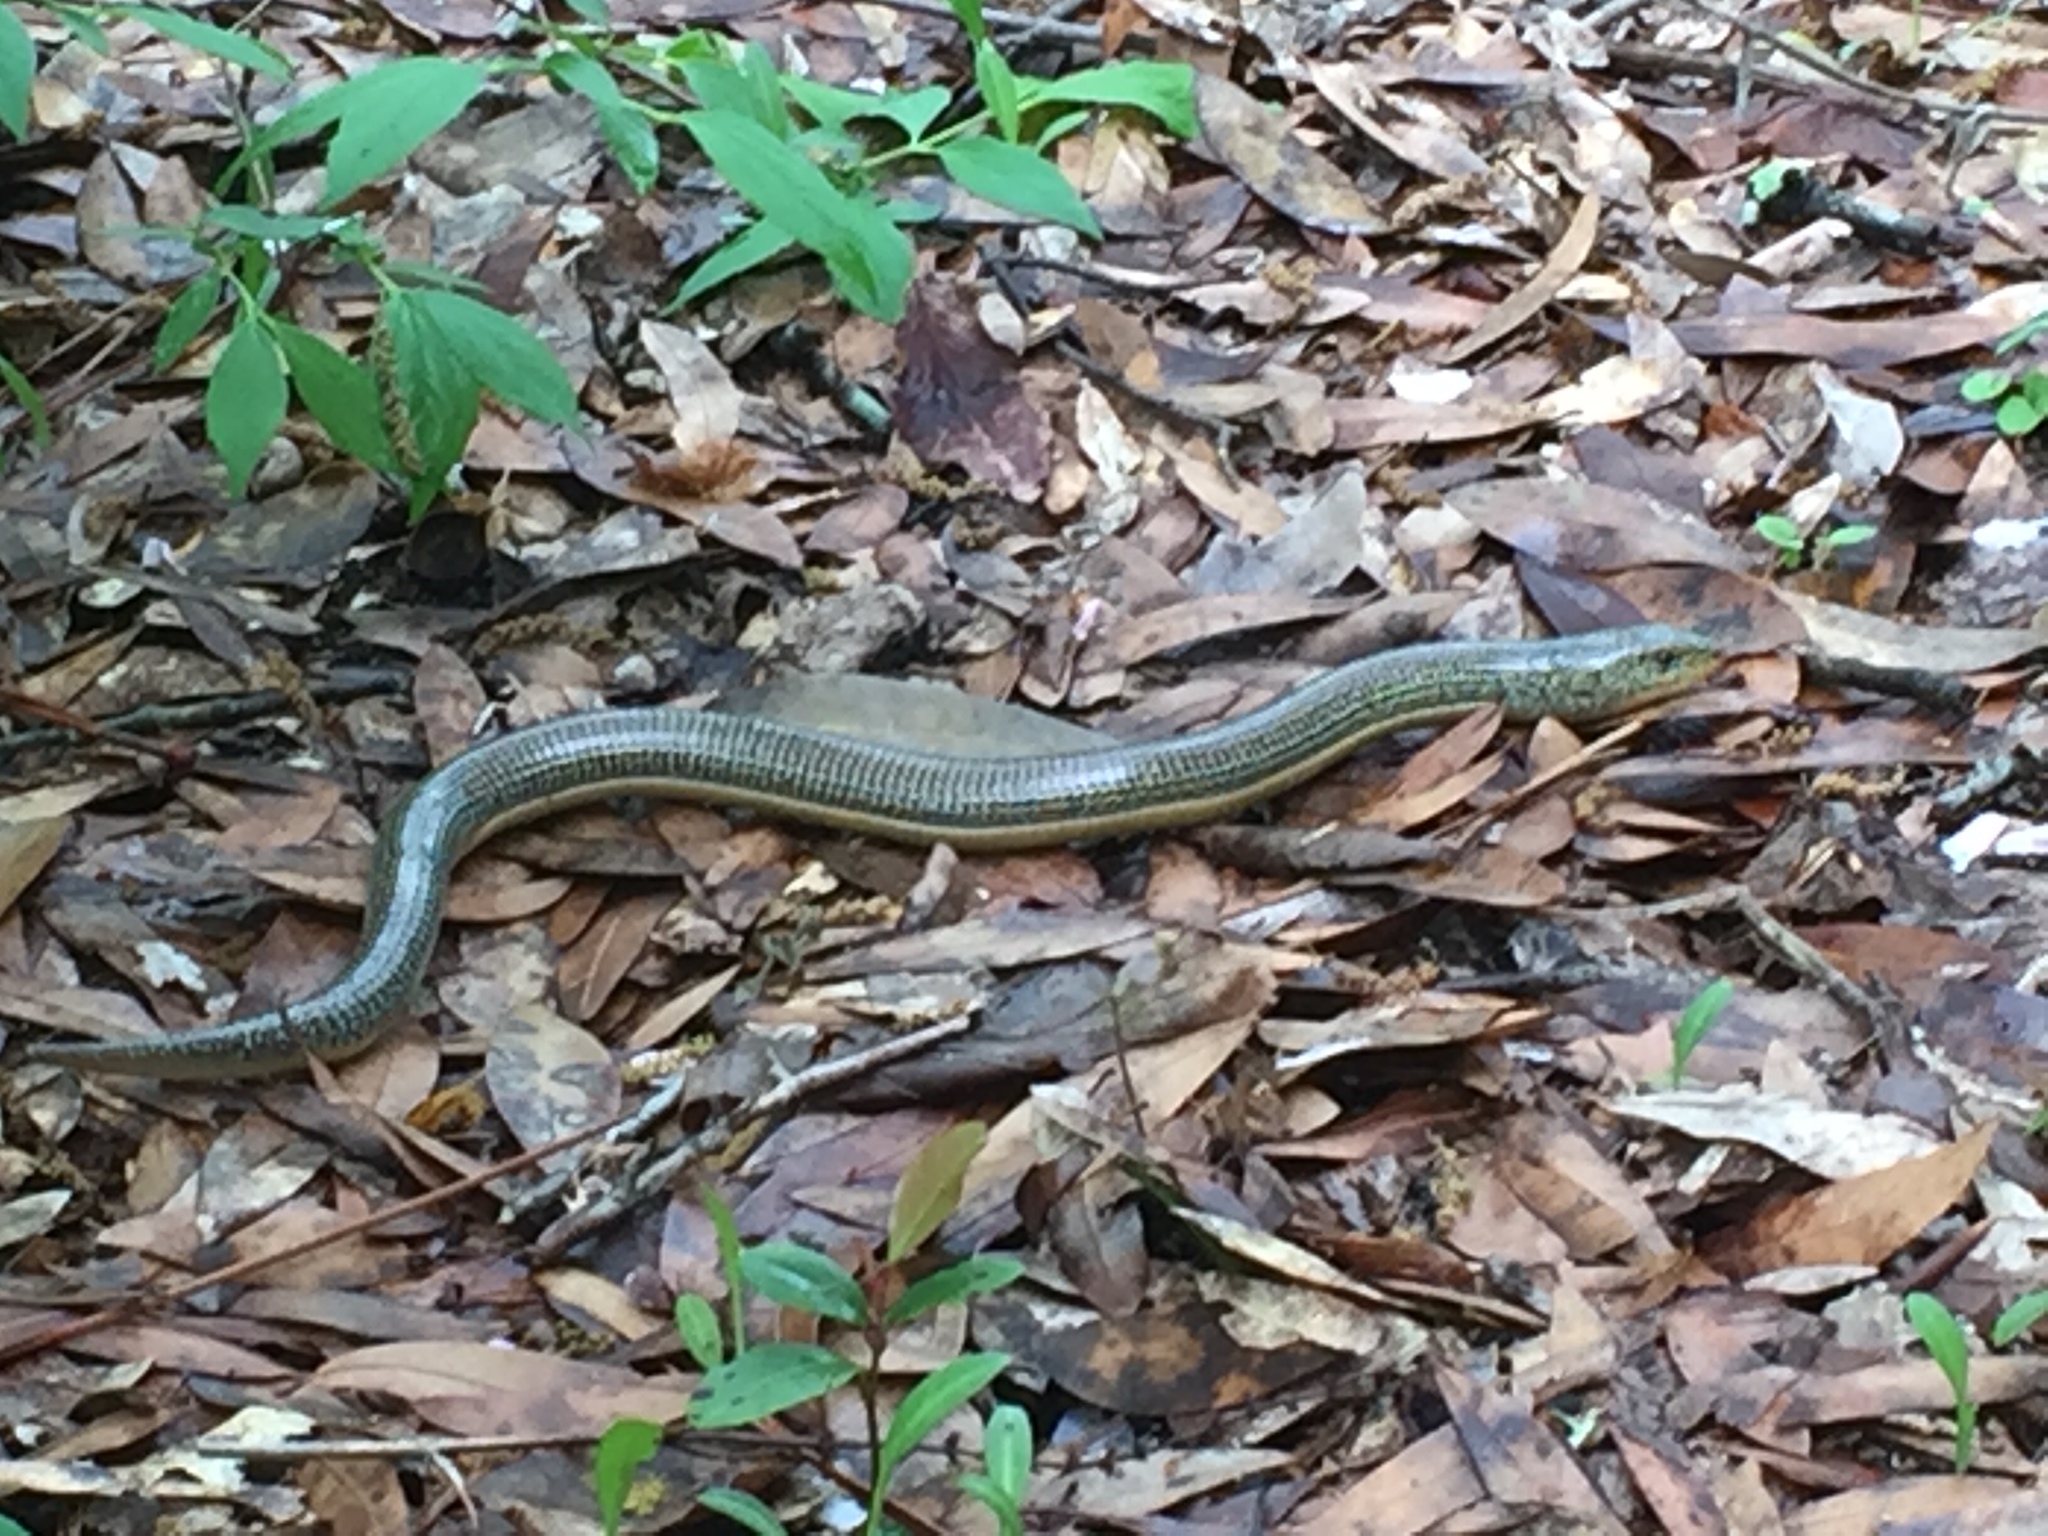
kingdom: Animalia
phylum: Chordata
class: Squamata
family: Anguidae
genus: Ophisaurus
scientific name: Ophisaurus ventralis
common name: Eastern glass lizard
